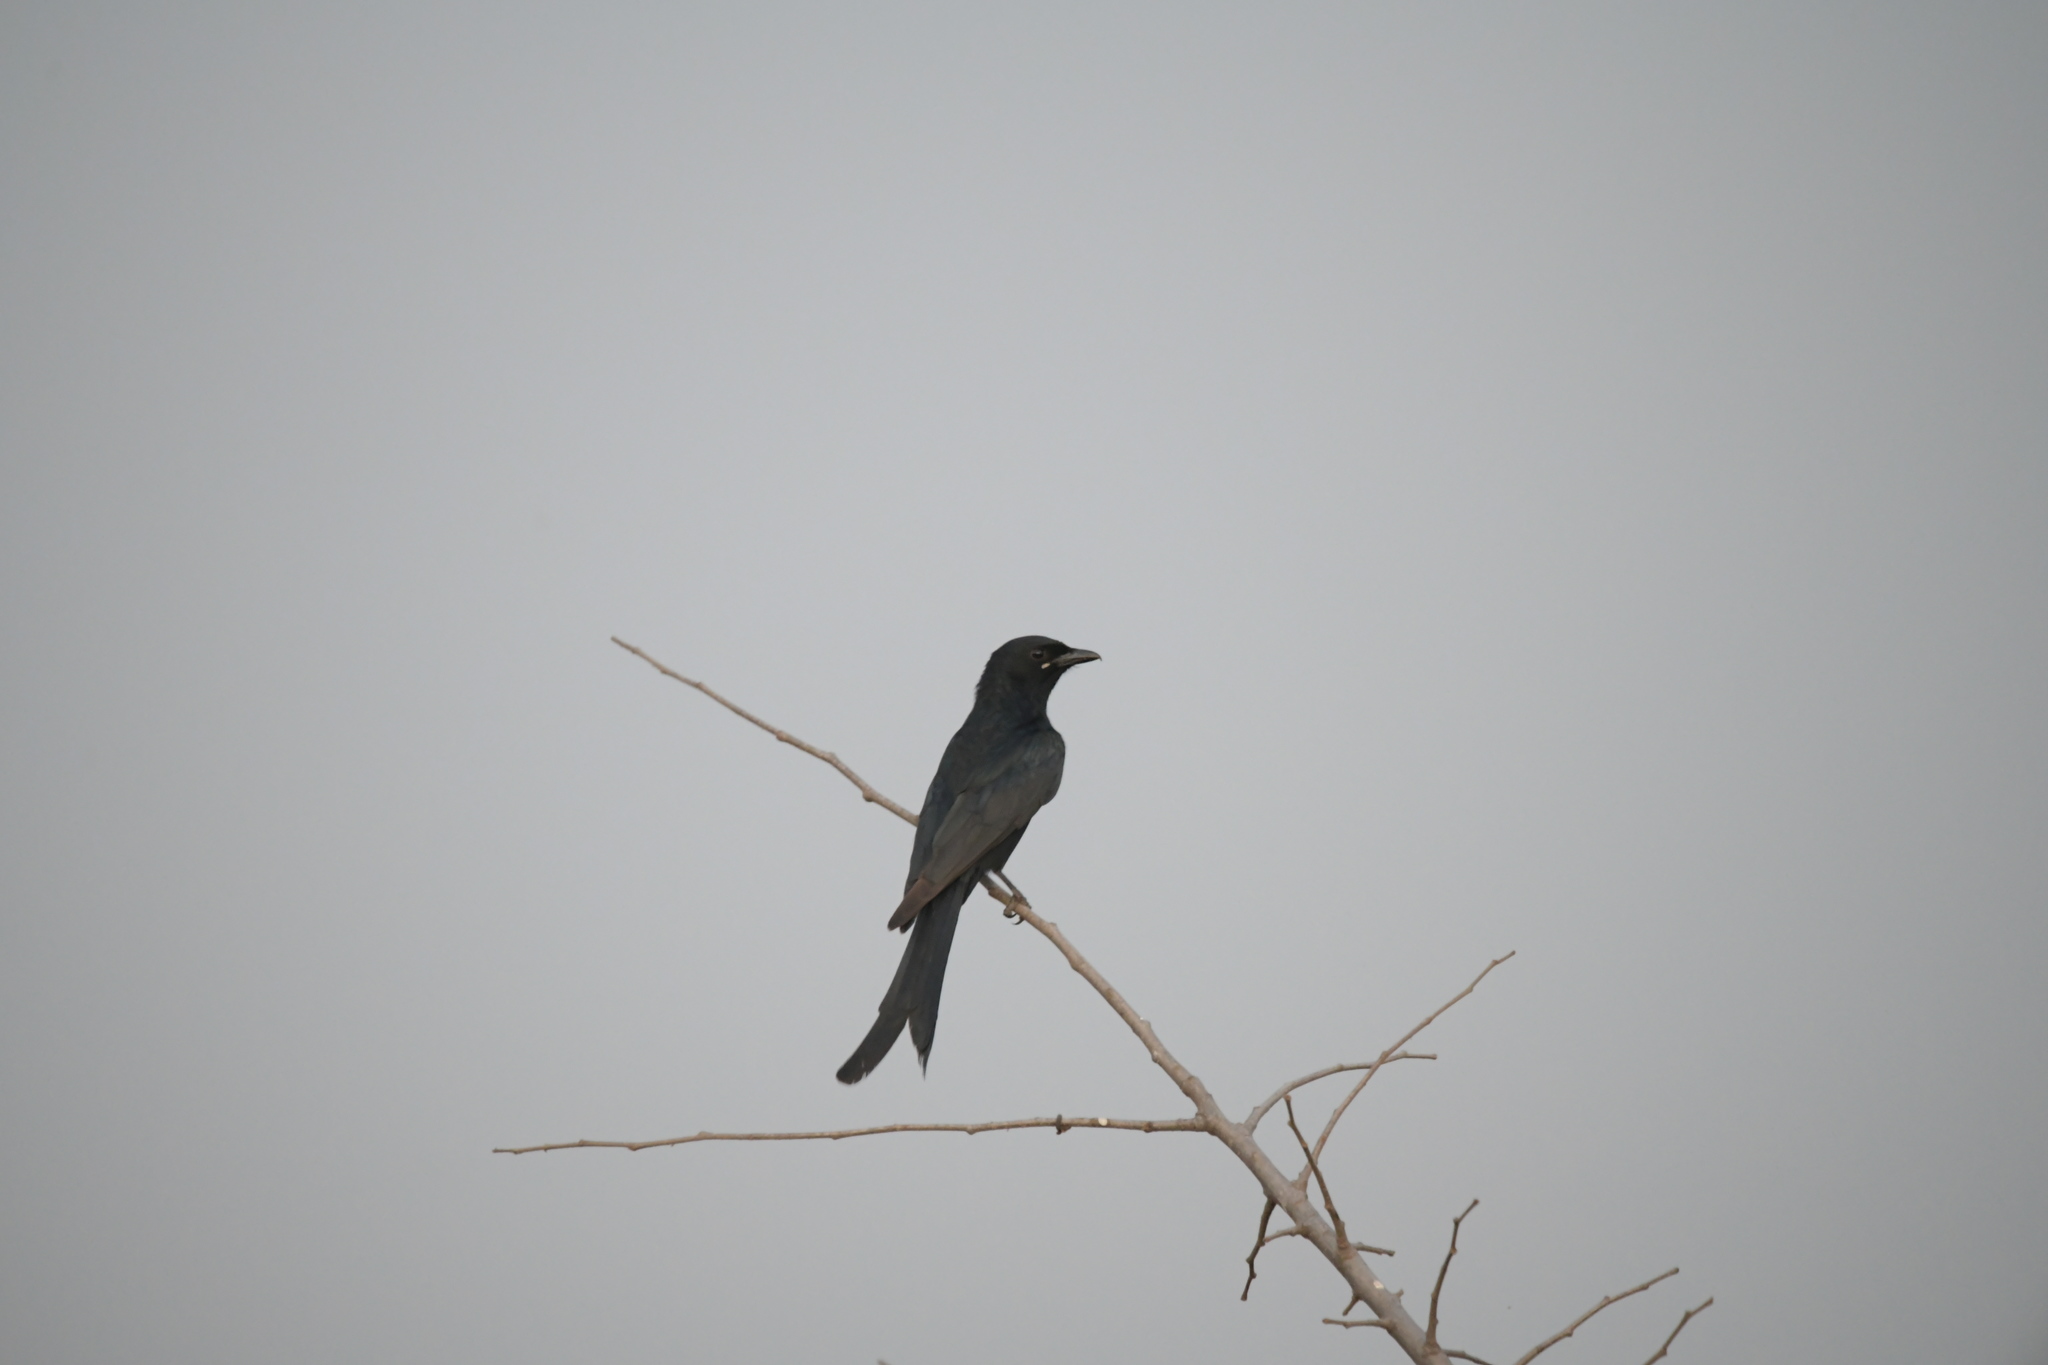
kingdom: Animalia
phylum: Chordata
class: Aves
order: Passeriformes
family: Dicruridae
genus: Dicrurus
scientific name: Dicrurus macrocercus
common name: Black drongo
